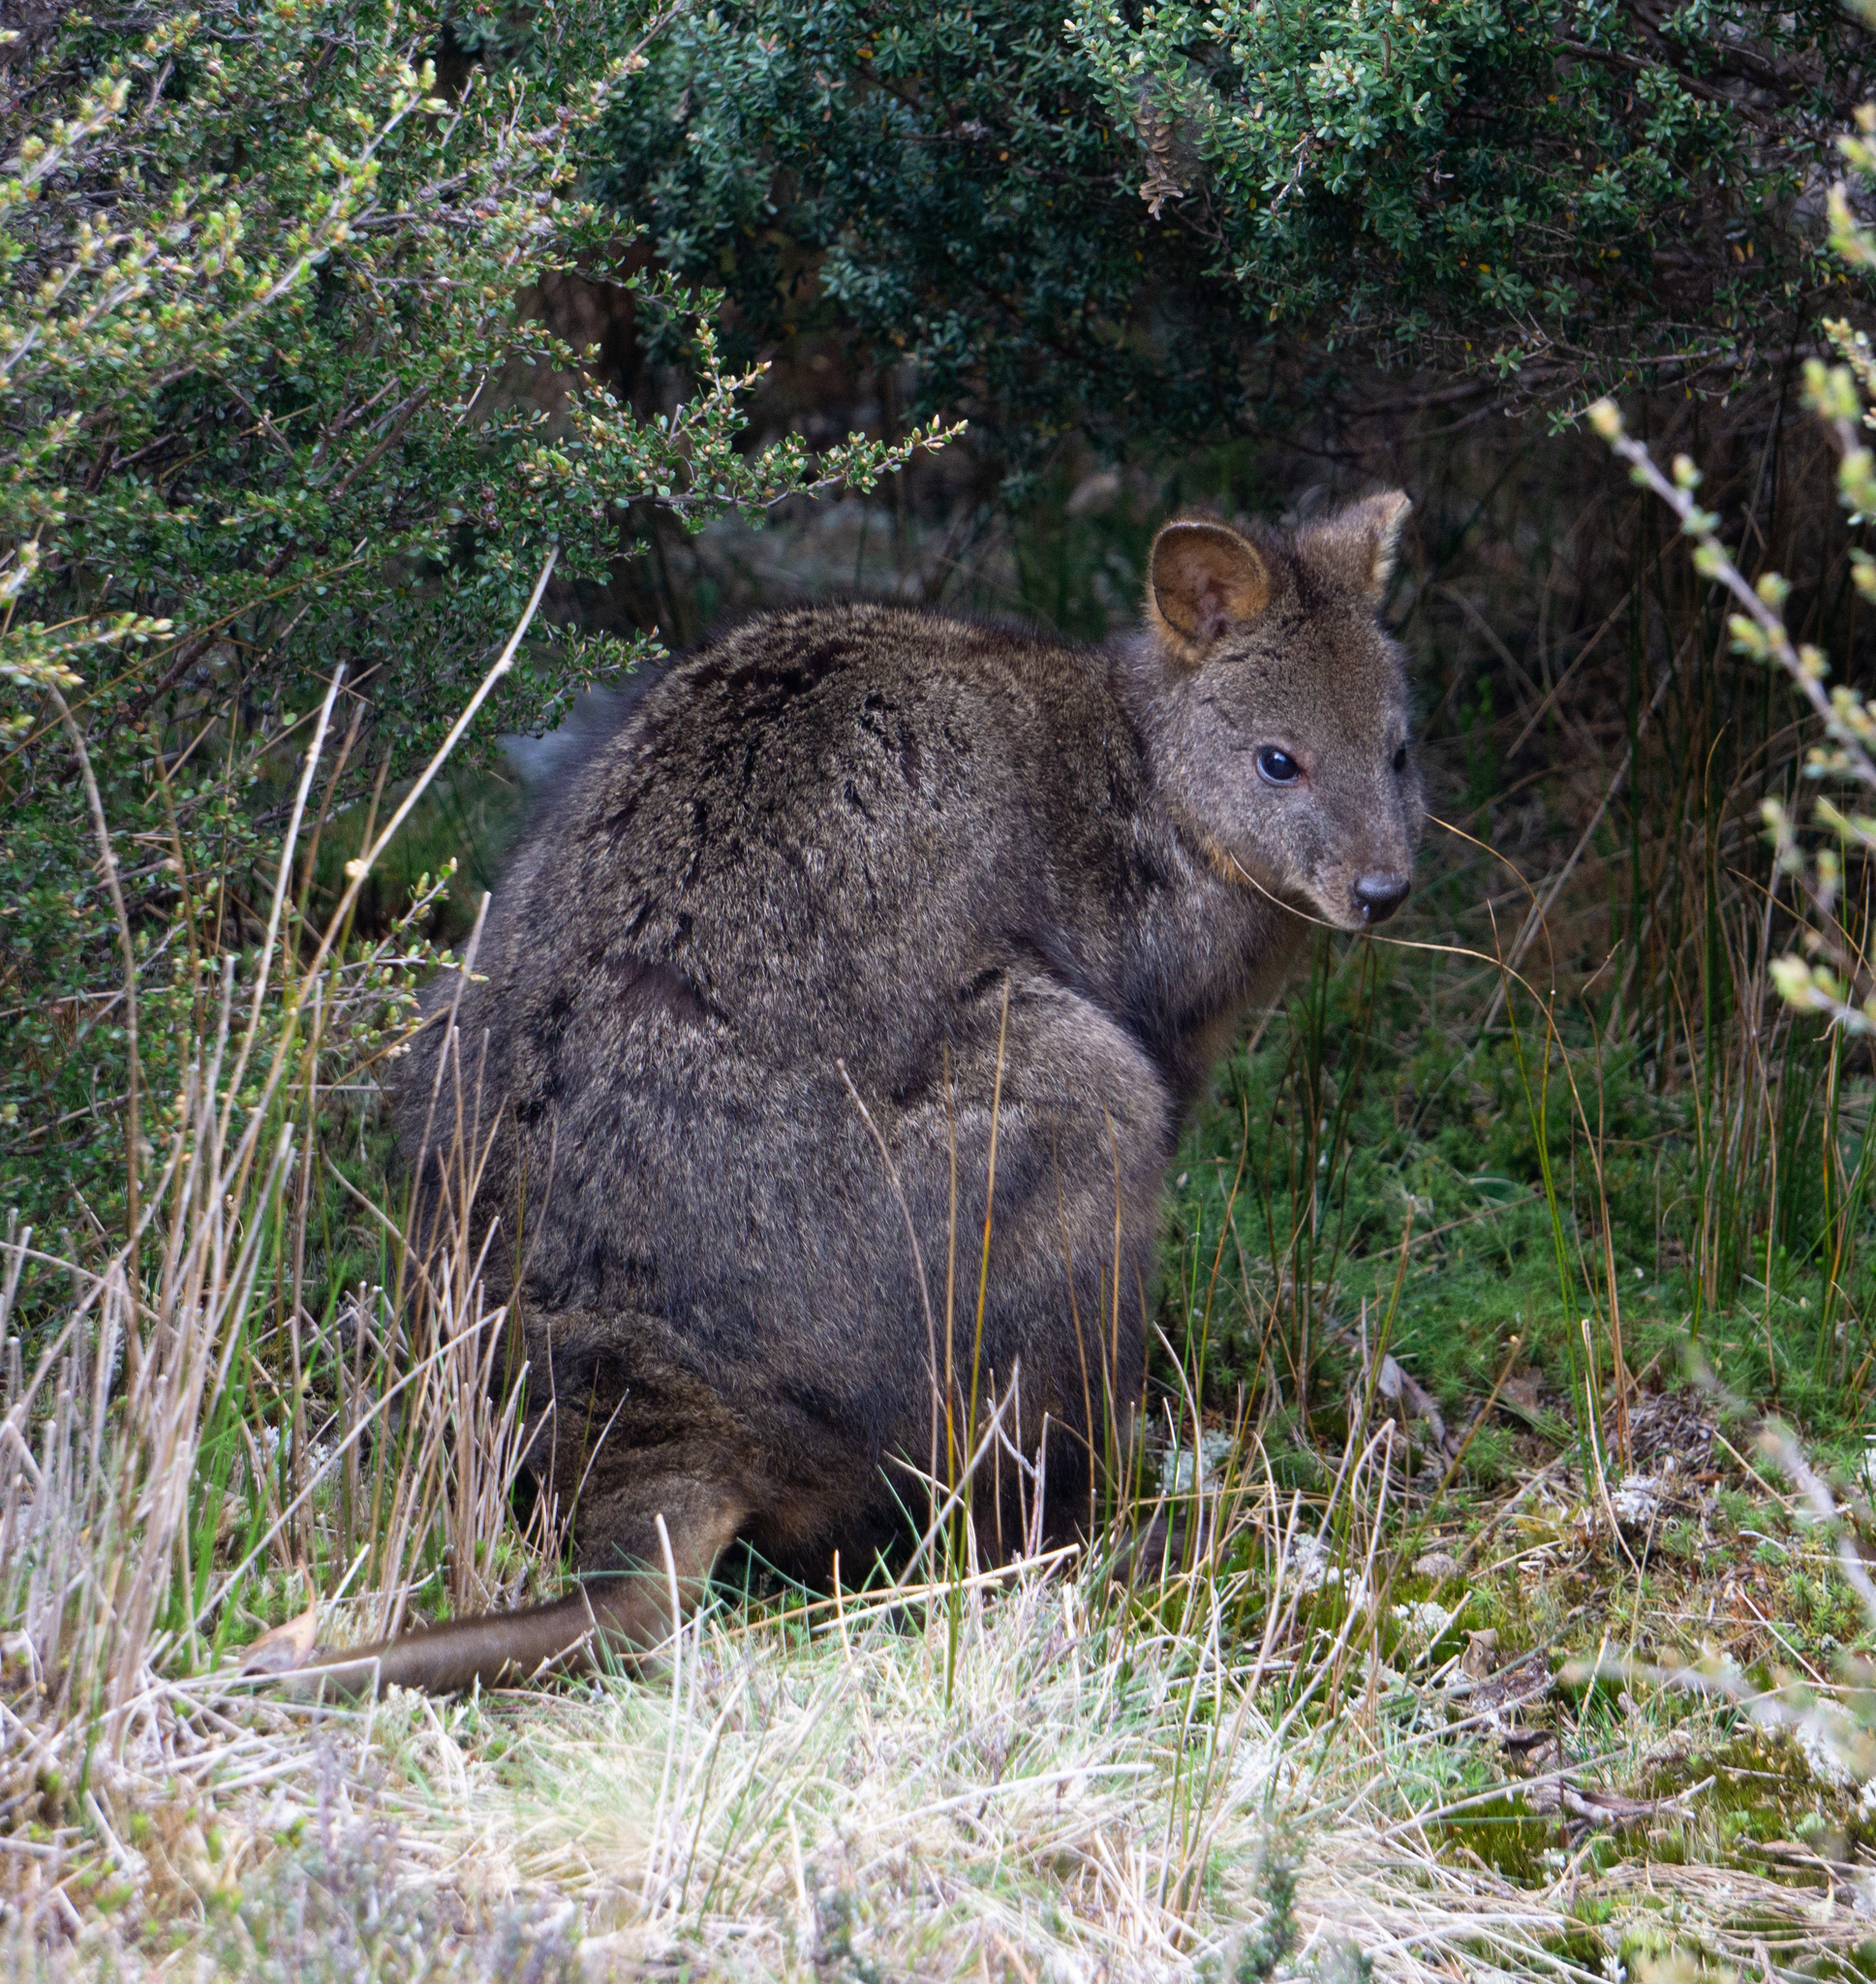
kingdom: Animalia
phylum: Chordata
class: Mammalia
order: Diprotodontia
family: Macropodidae
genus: Thylogale
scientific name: Thylogale billardierii
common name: Tasmanian pademelon
